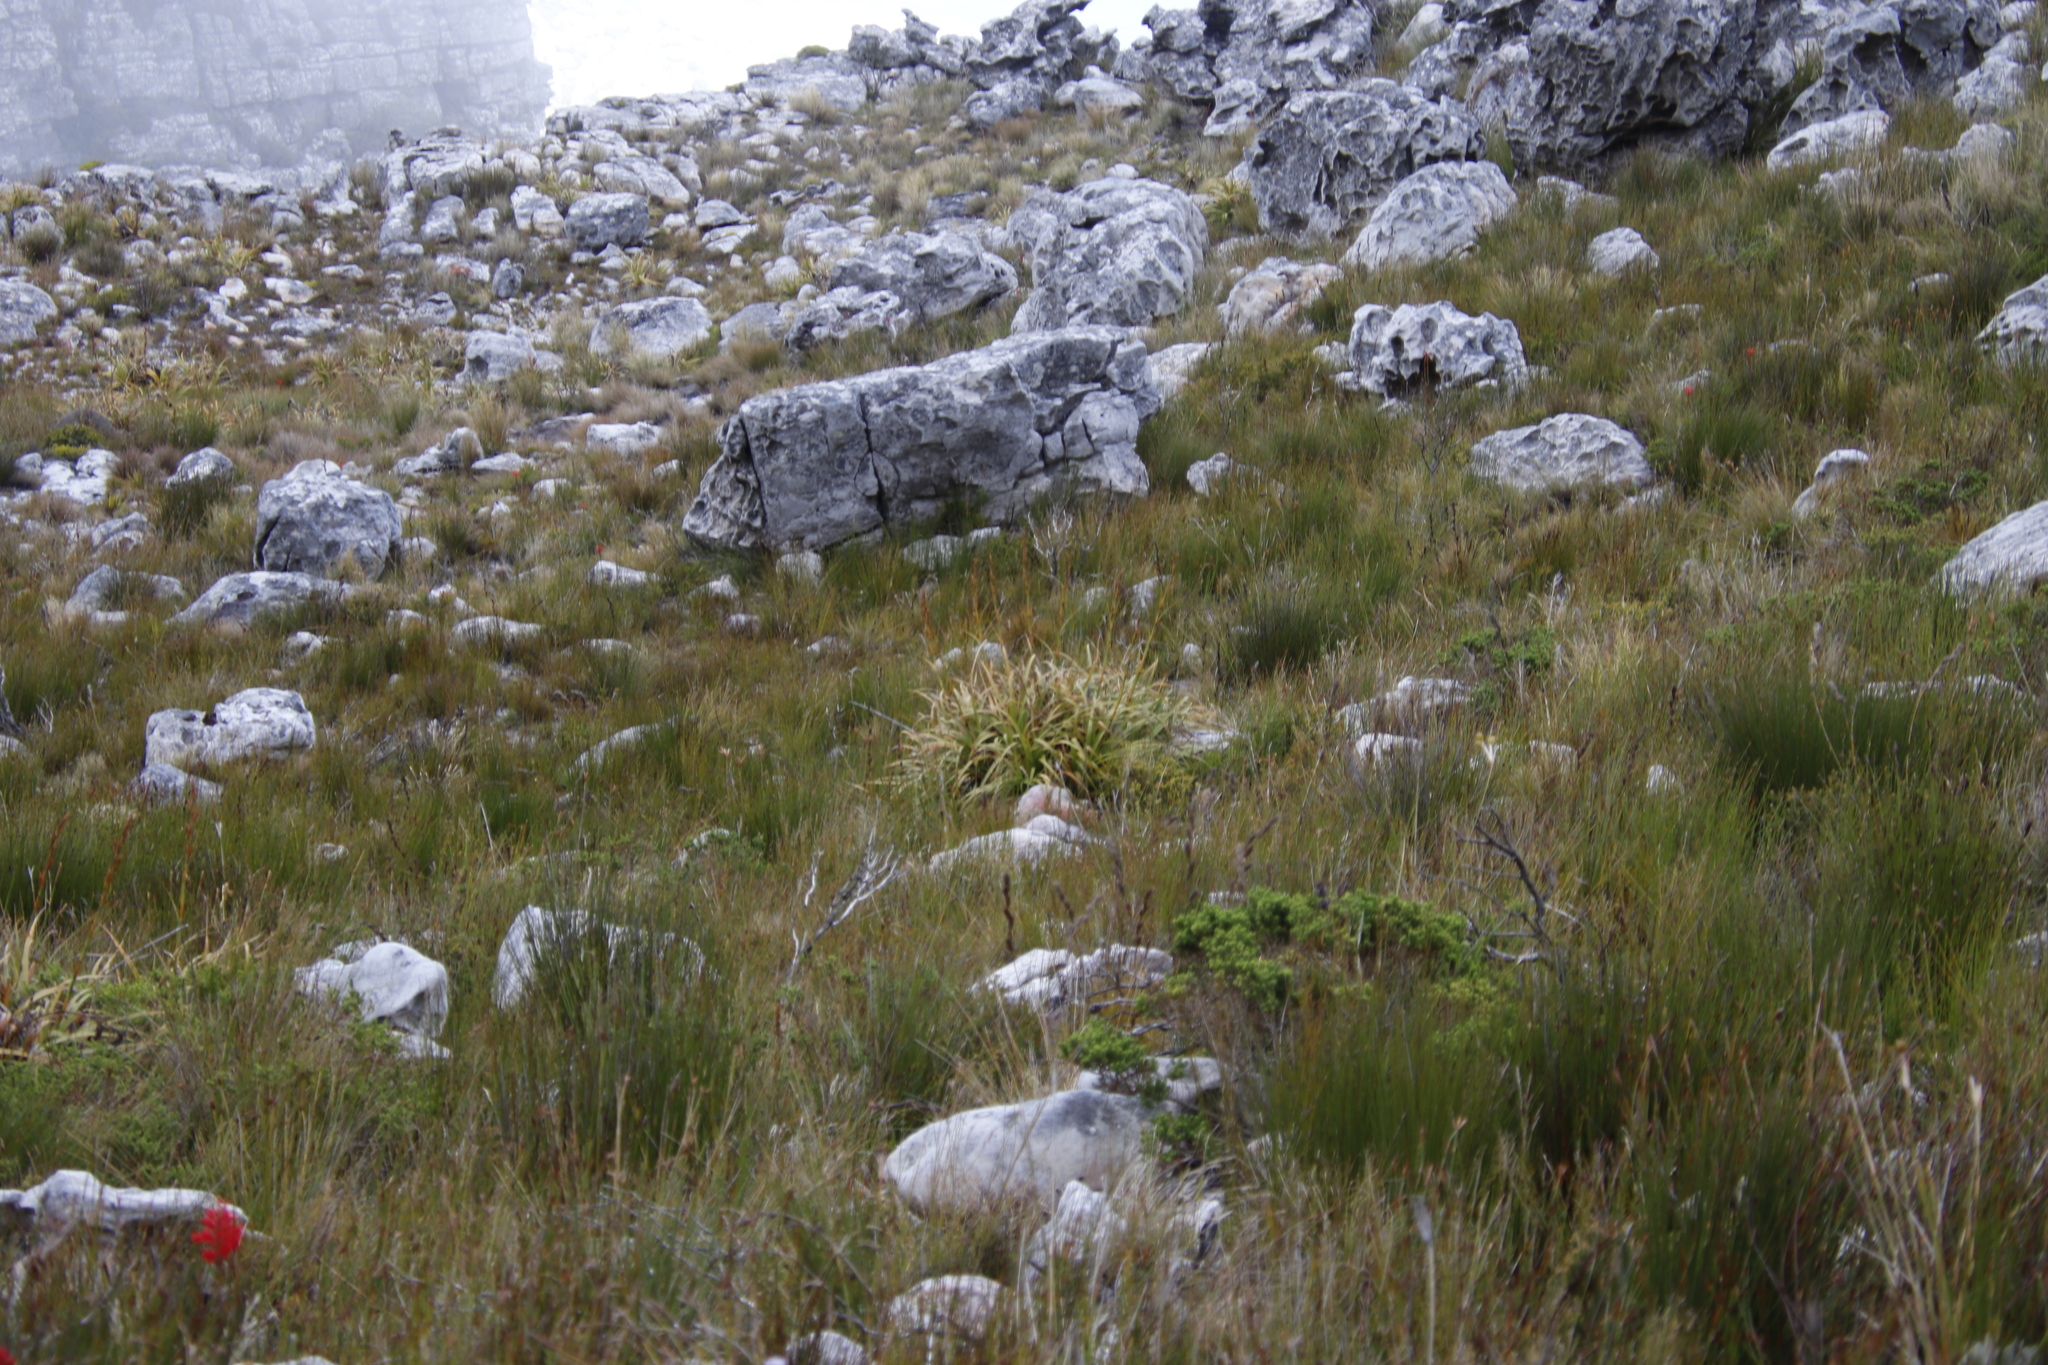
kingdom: Plantae
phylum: Tracheophyta
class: Liliopsida
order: Poales
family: Cyperaceae
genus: Tetraria
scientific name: Tetraria thermalis
